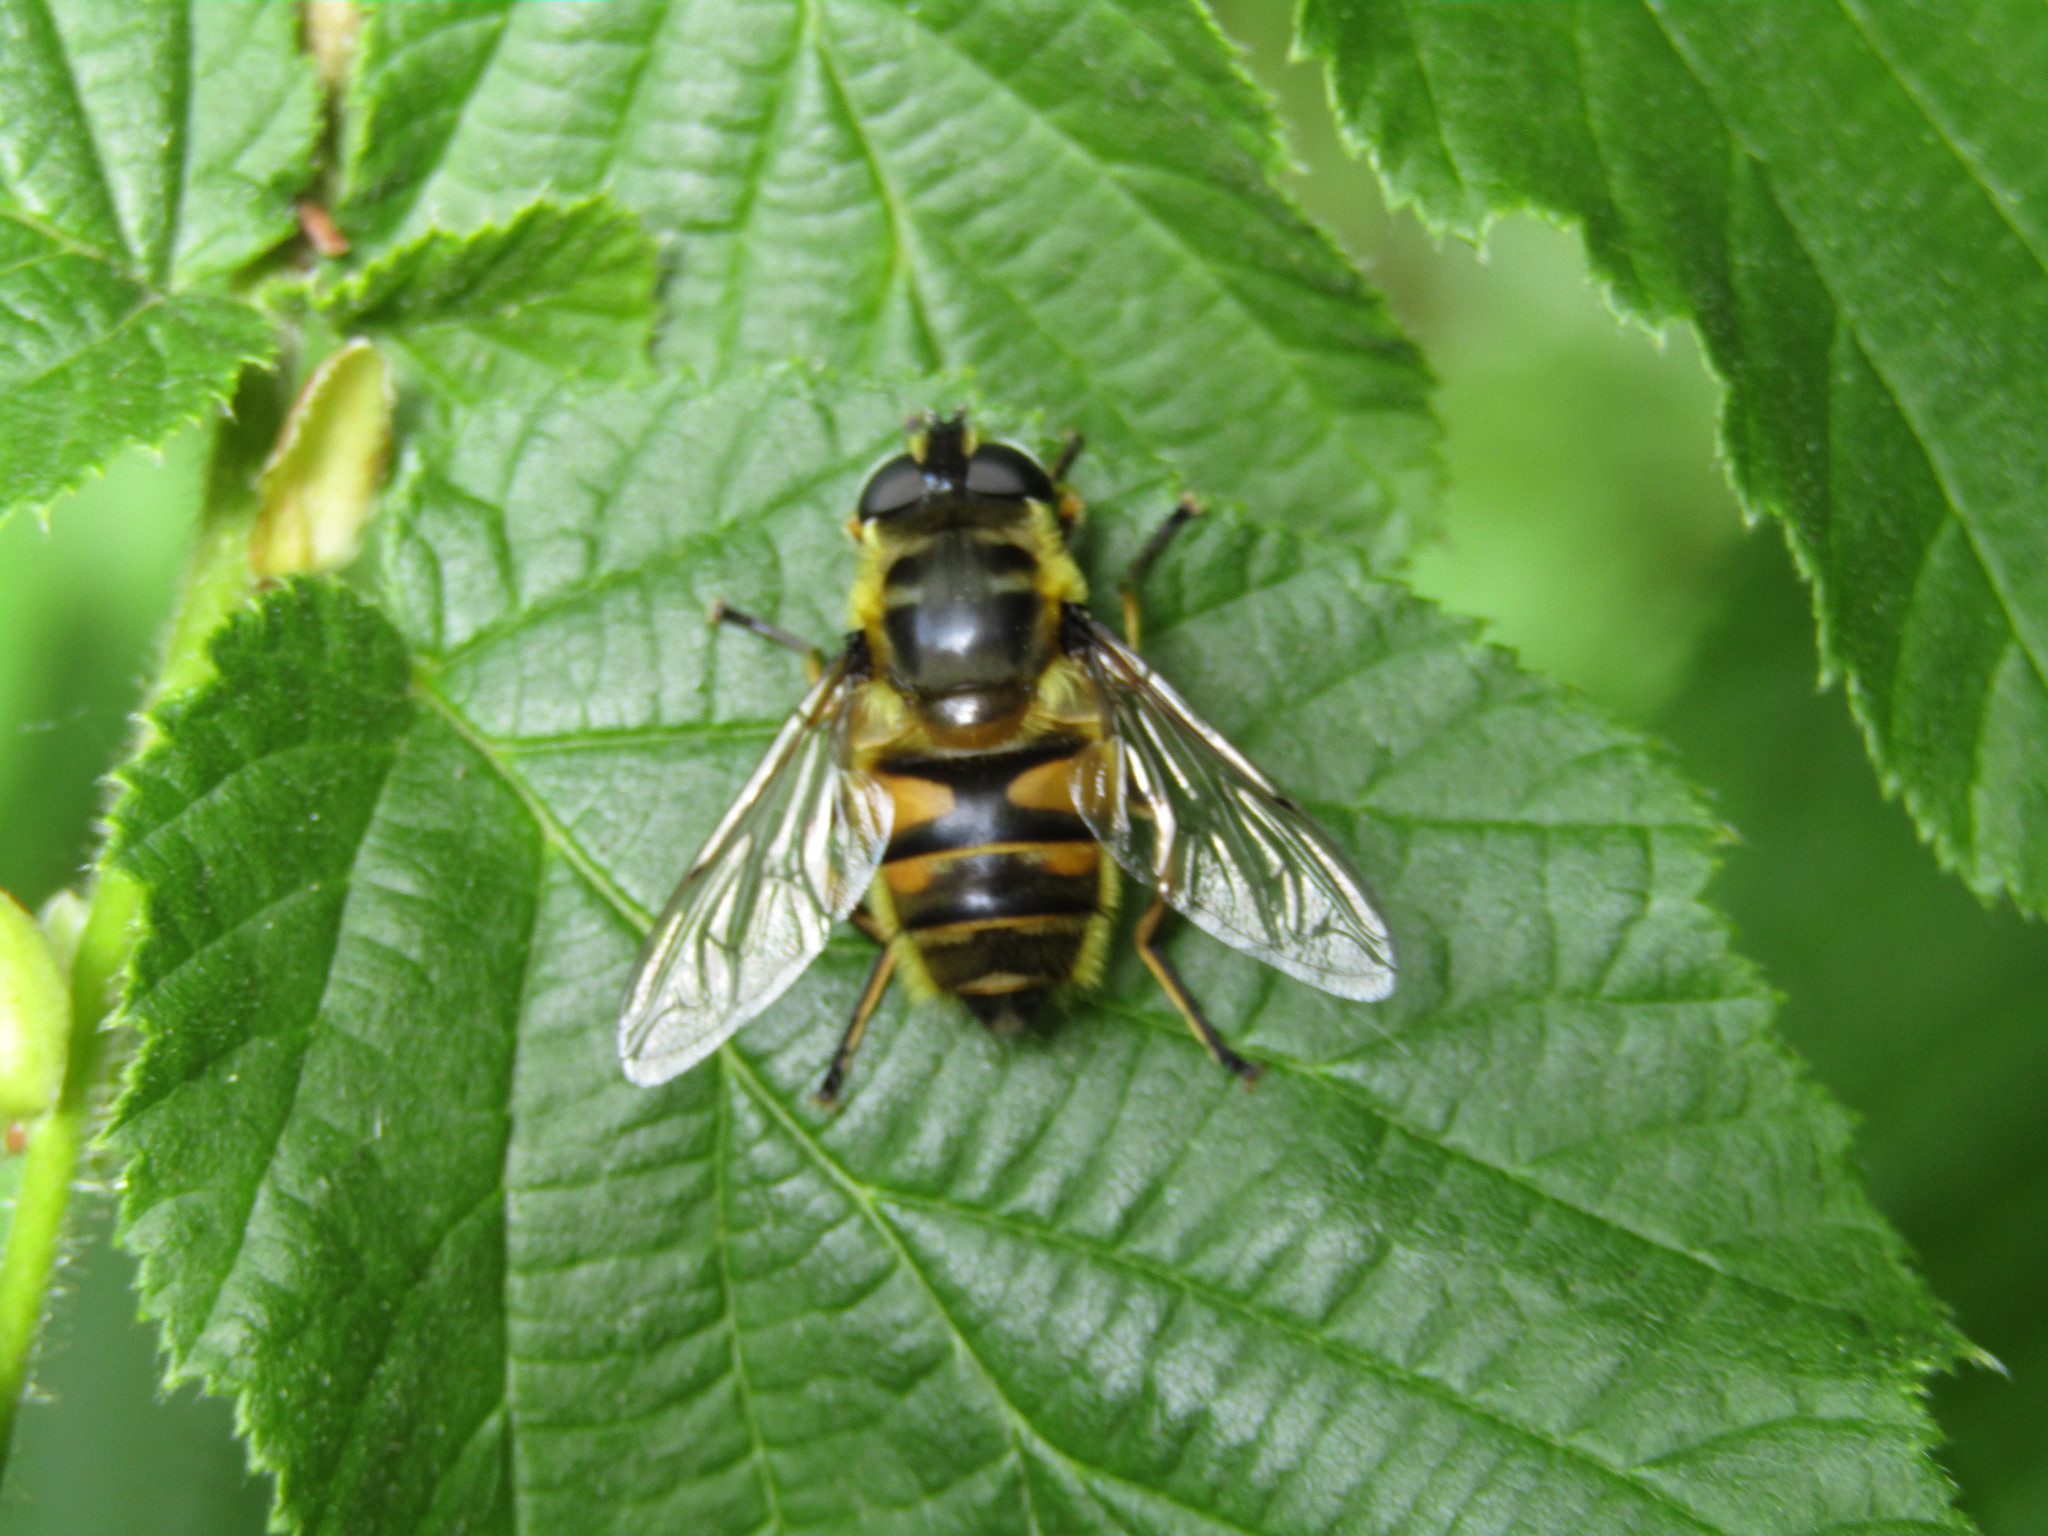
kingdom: Animalia
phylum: Arthropoda
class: Insecta
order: Diptera
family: Syrphidae
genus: Myathropa
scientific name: Myathropa florea
